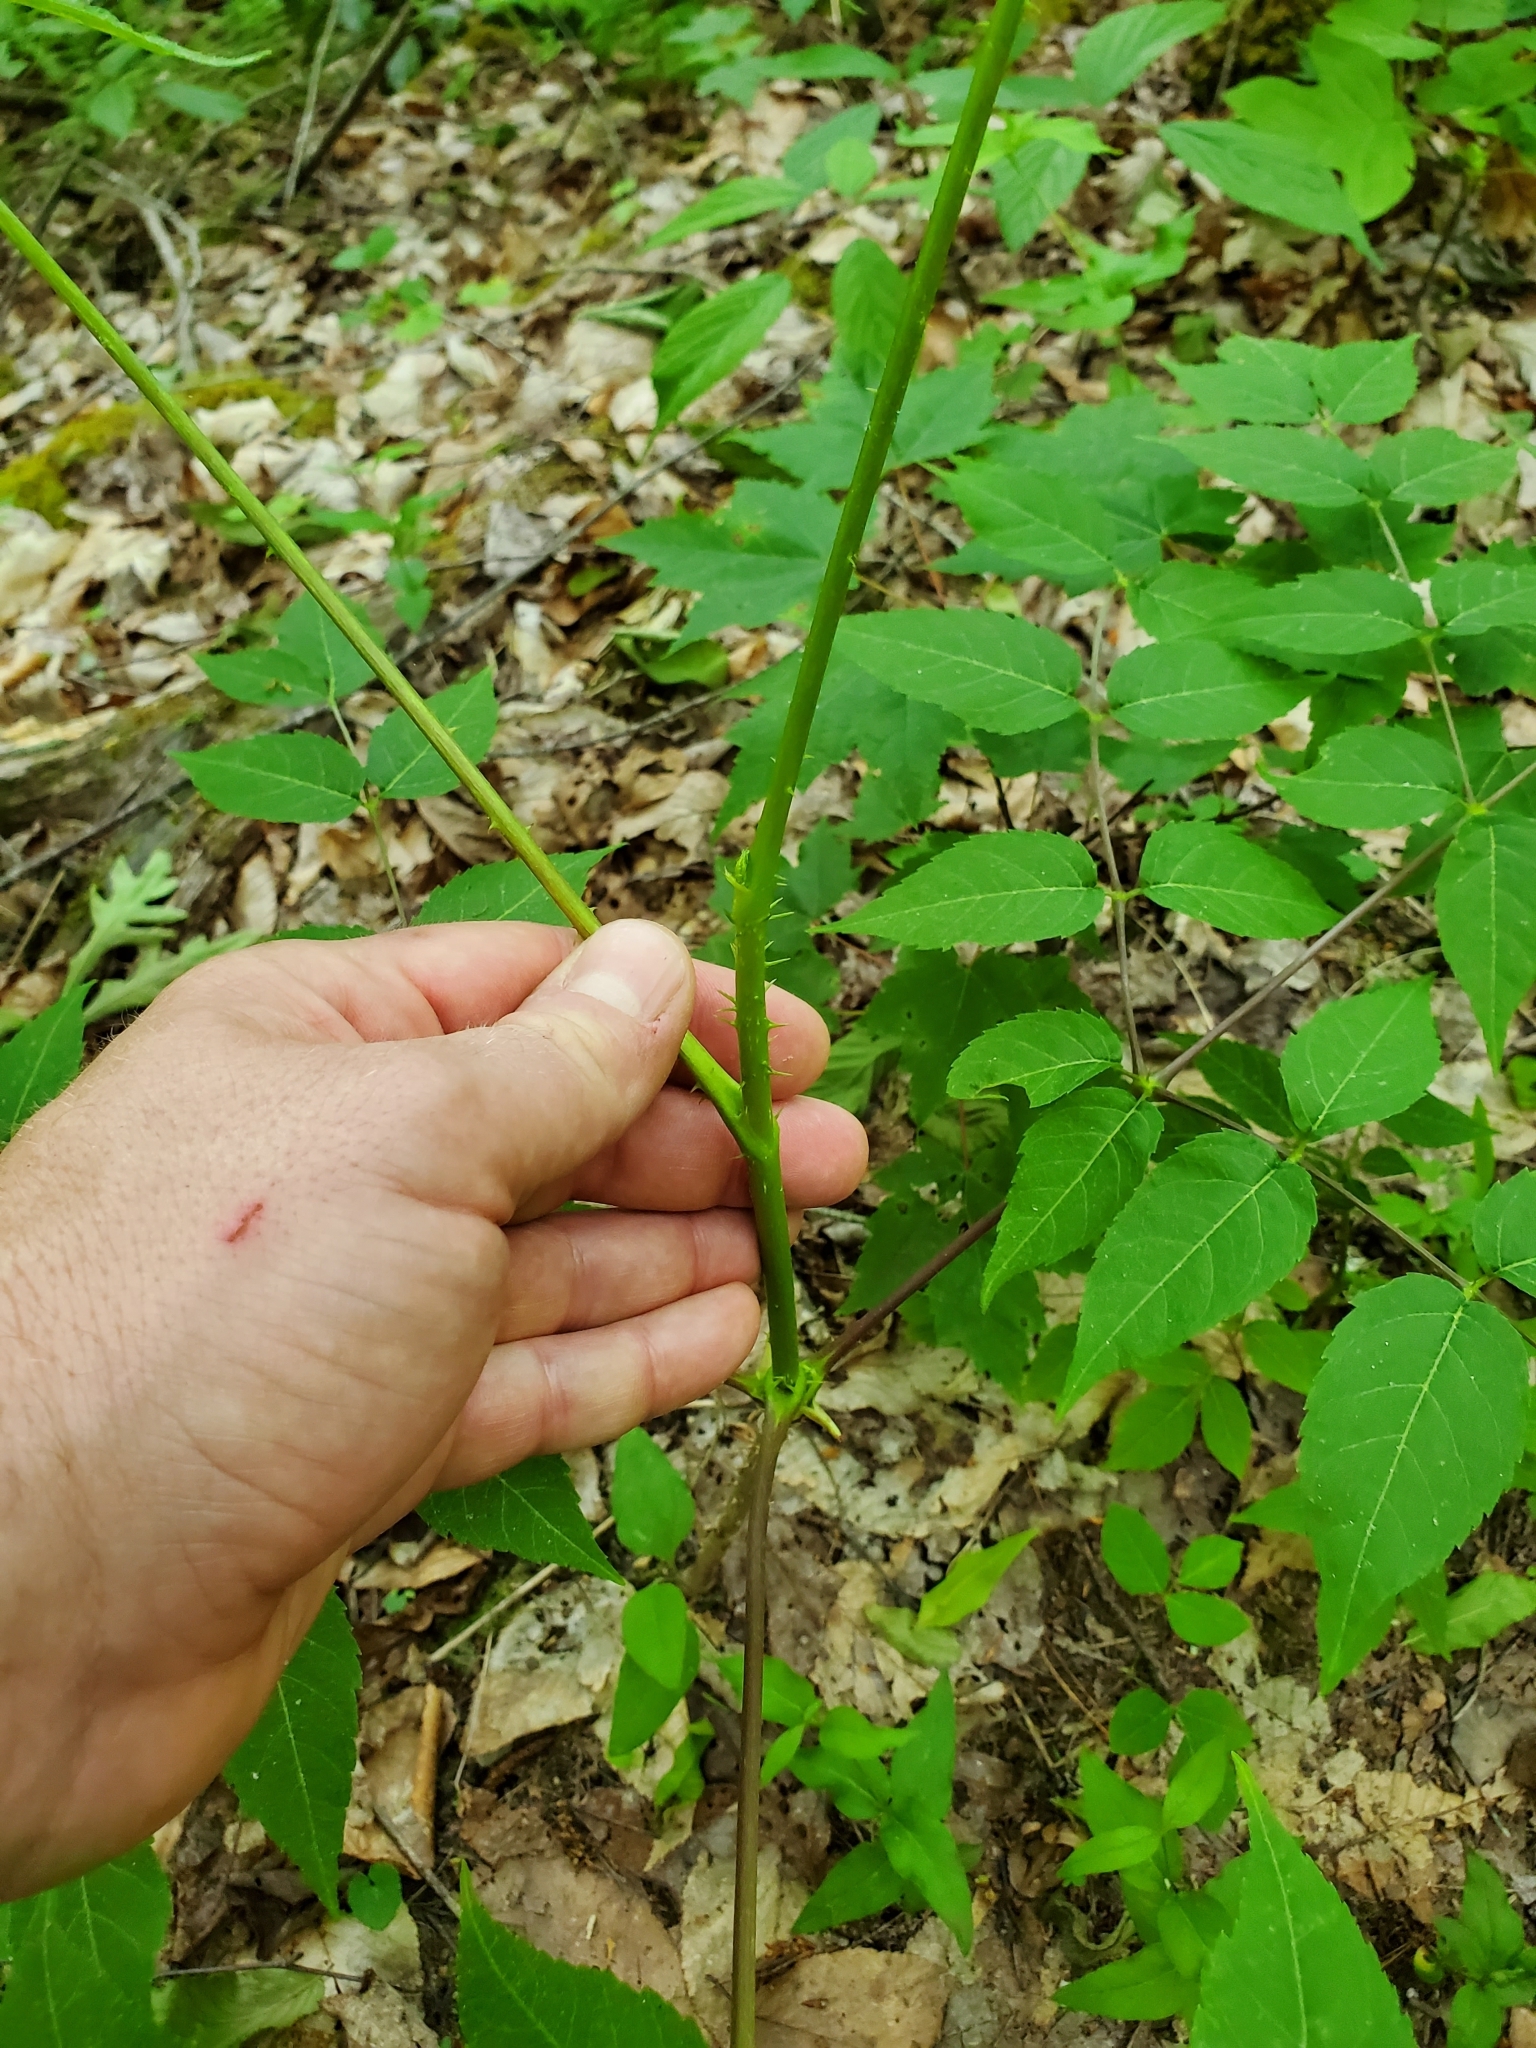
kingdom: Plantae
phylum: Tracheophyta
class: Magnoliopsida
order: Apiales
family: Araliaceae
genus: Aralia
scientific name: Aralia spinosa
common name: Hercules'-club
